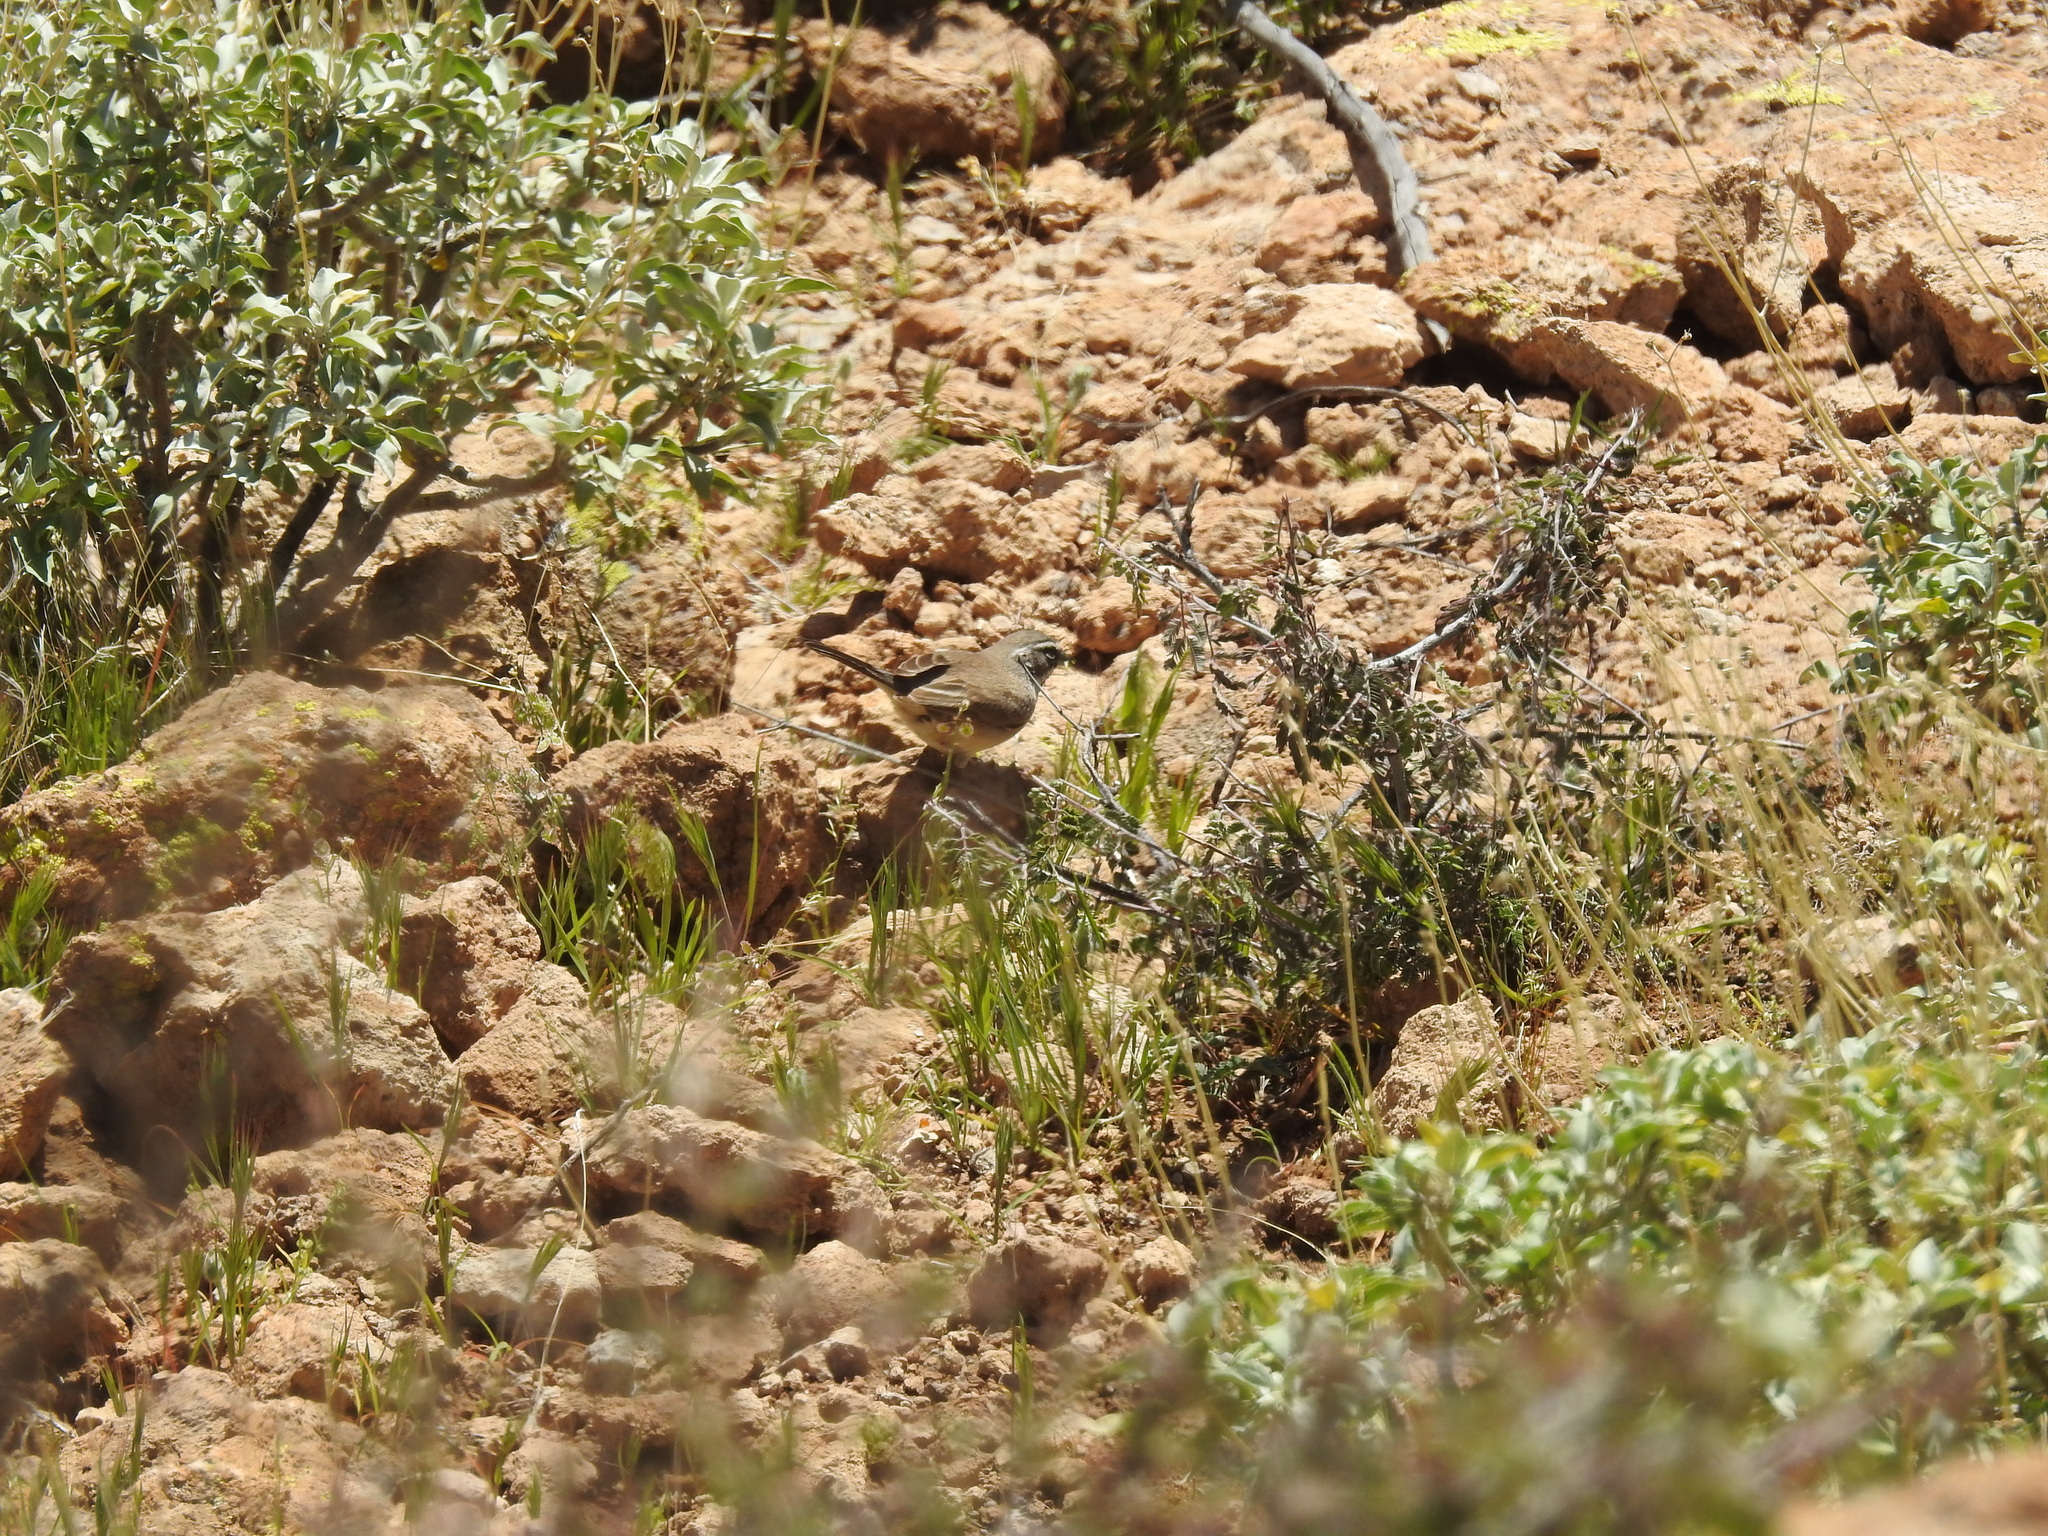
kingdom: Animalia
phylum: Chordata
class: Aves
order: Passeriformes
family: Passerellidae
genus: Amphispiza
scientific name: Amphispiza bilineata
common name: Black-throated sparrow
